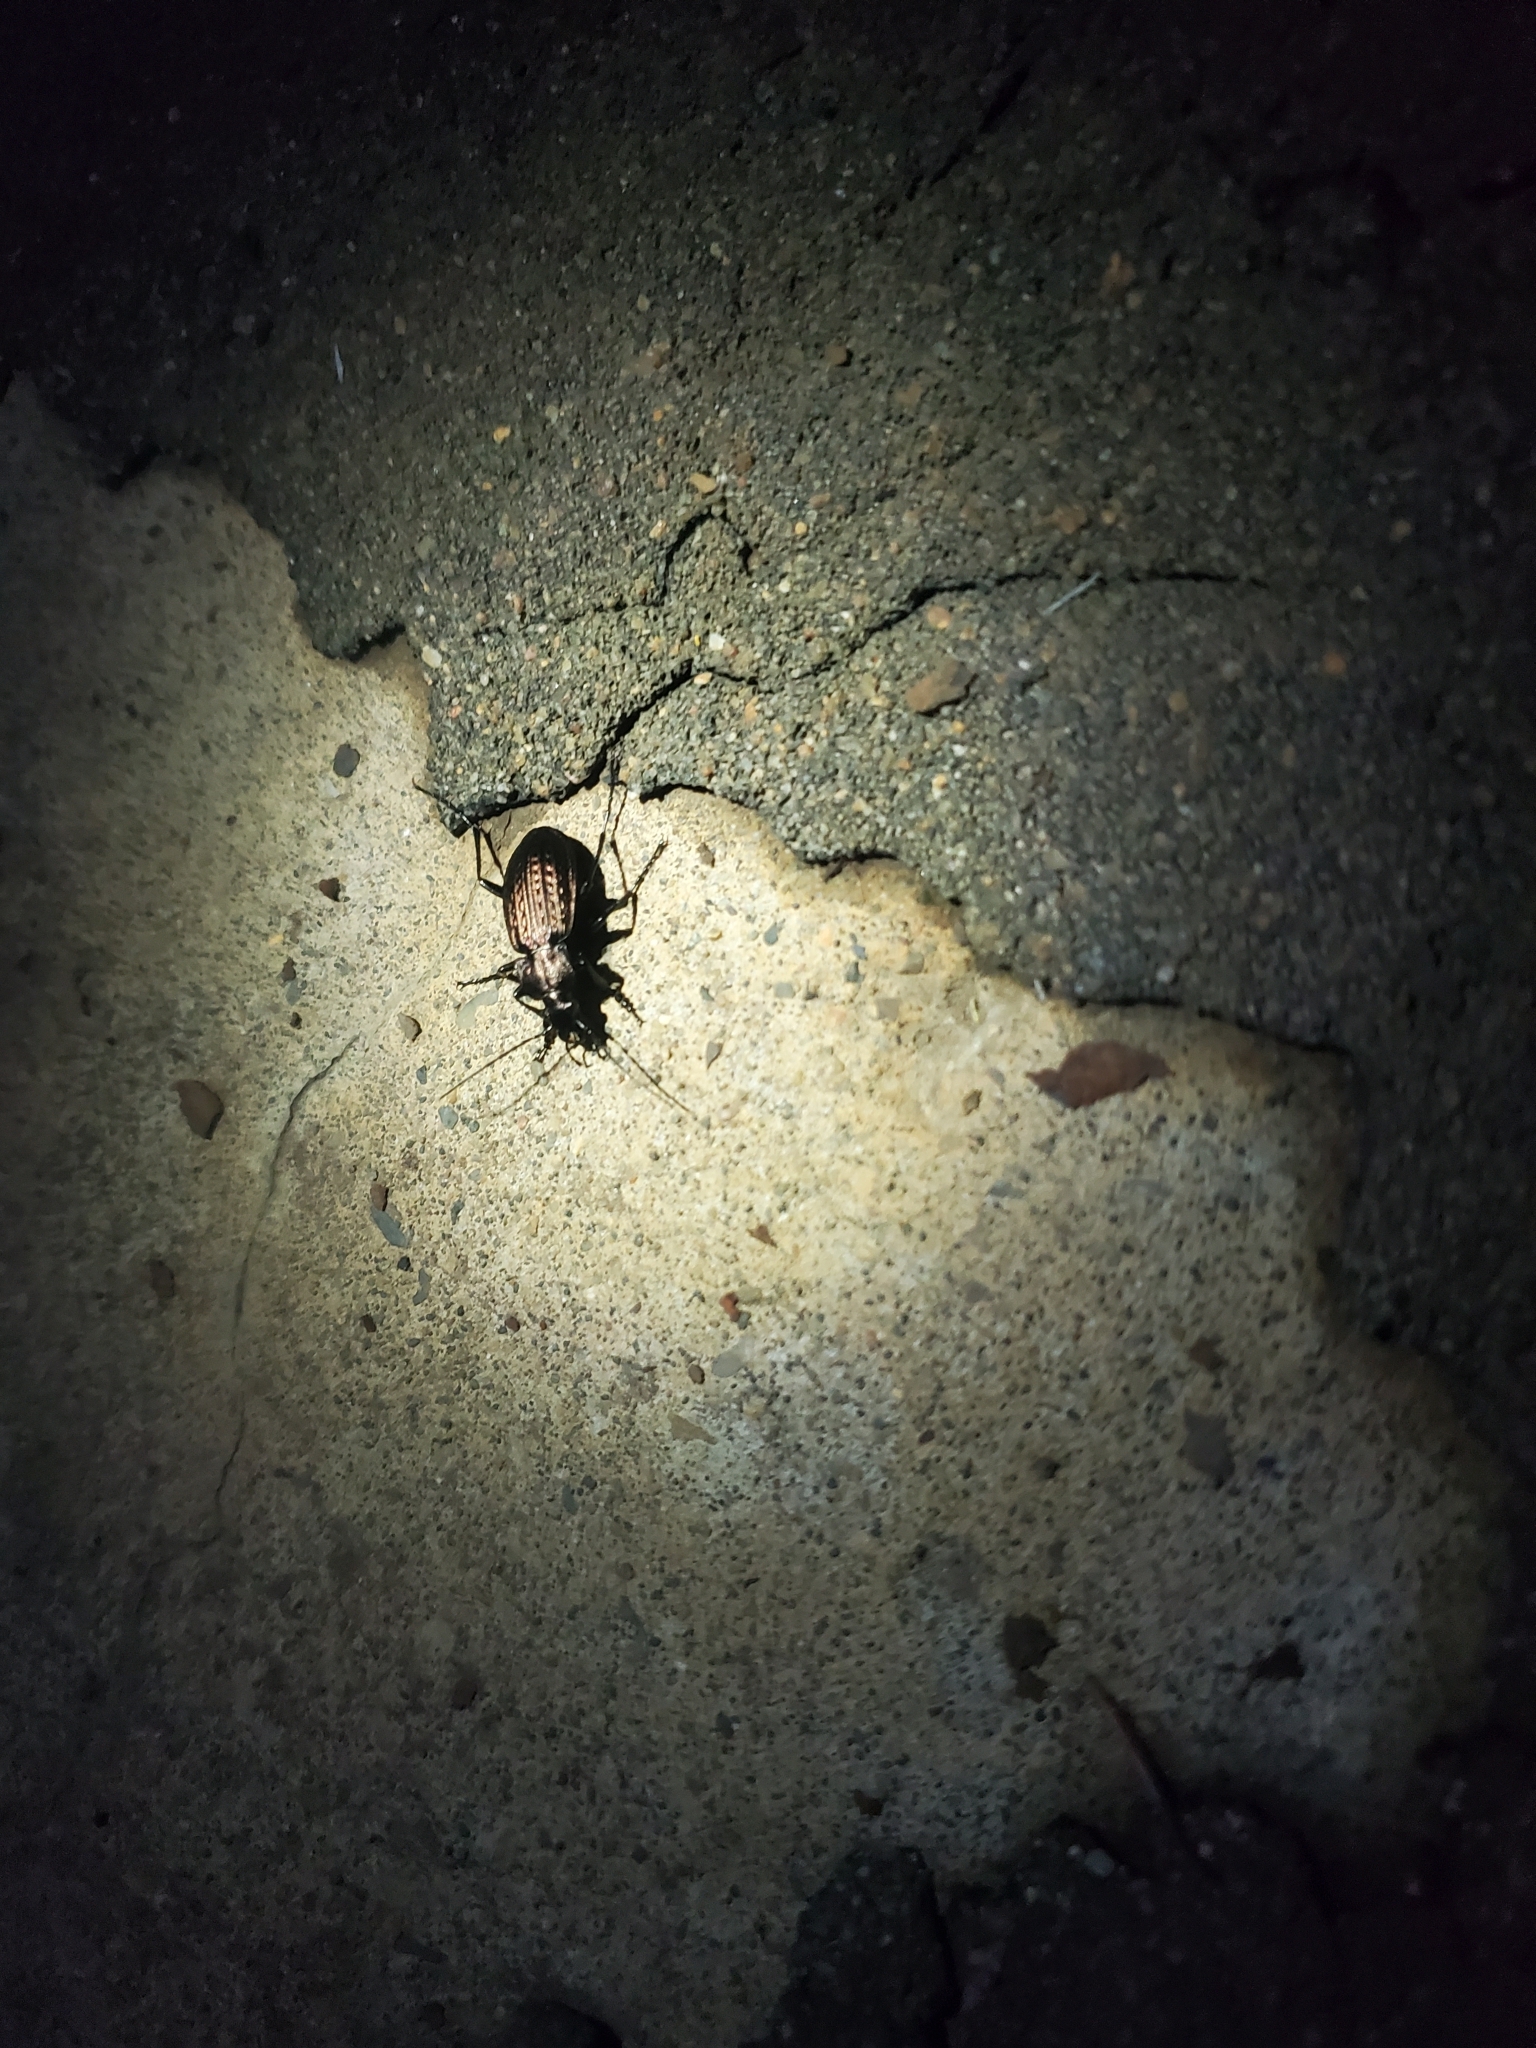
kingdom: Animalia
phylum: Arthropoda
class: Insecta
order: Coleoptera
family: Carabidae
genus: Carabus
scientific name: Carabus granulatus
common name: Granulate ground beetle
